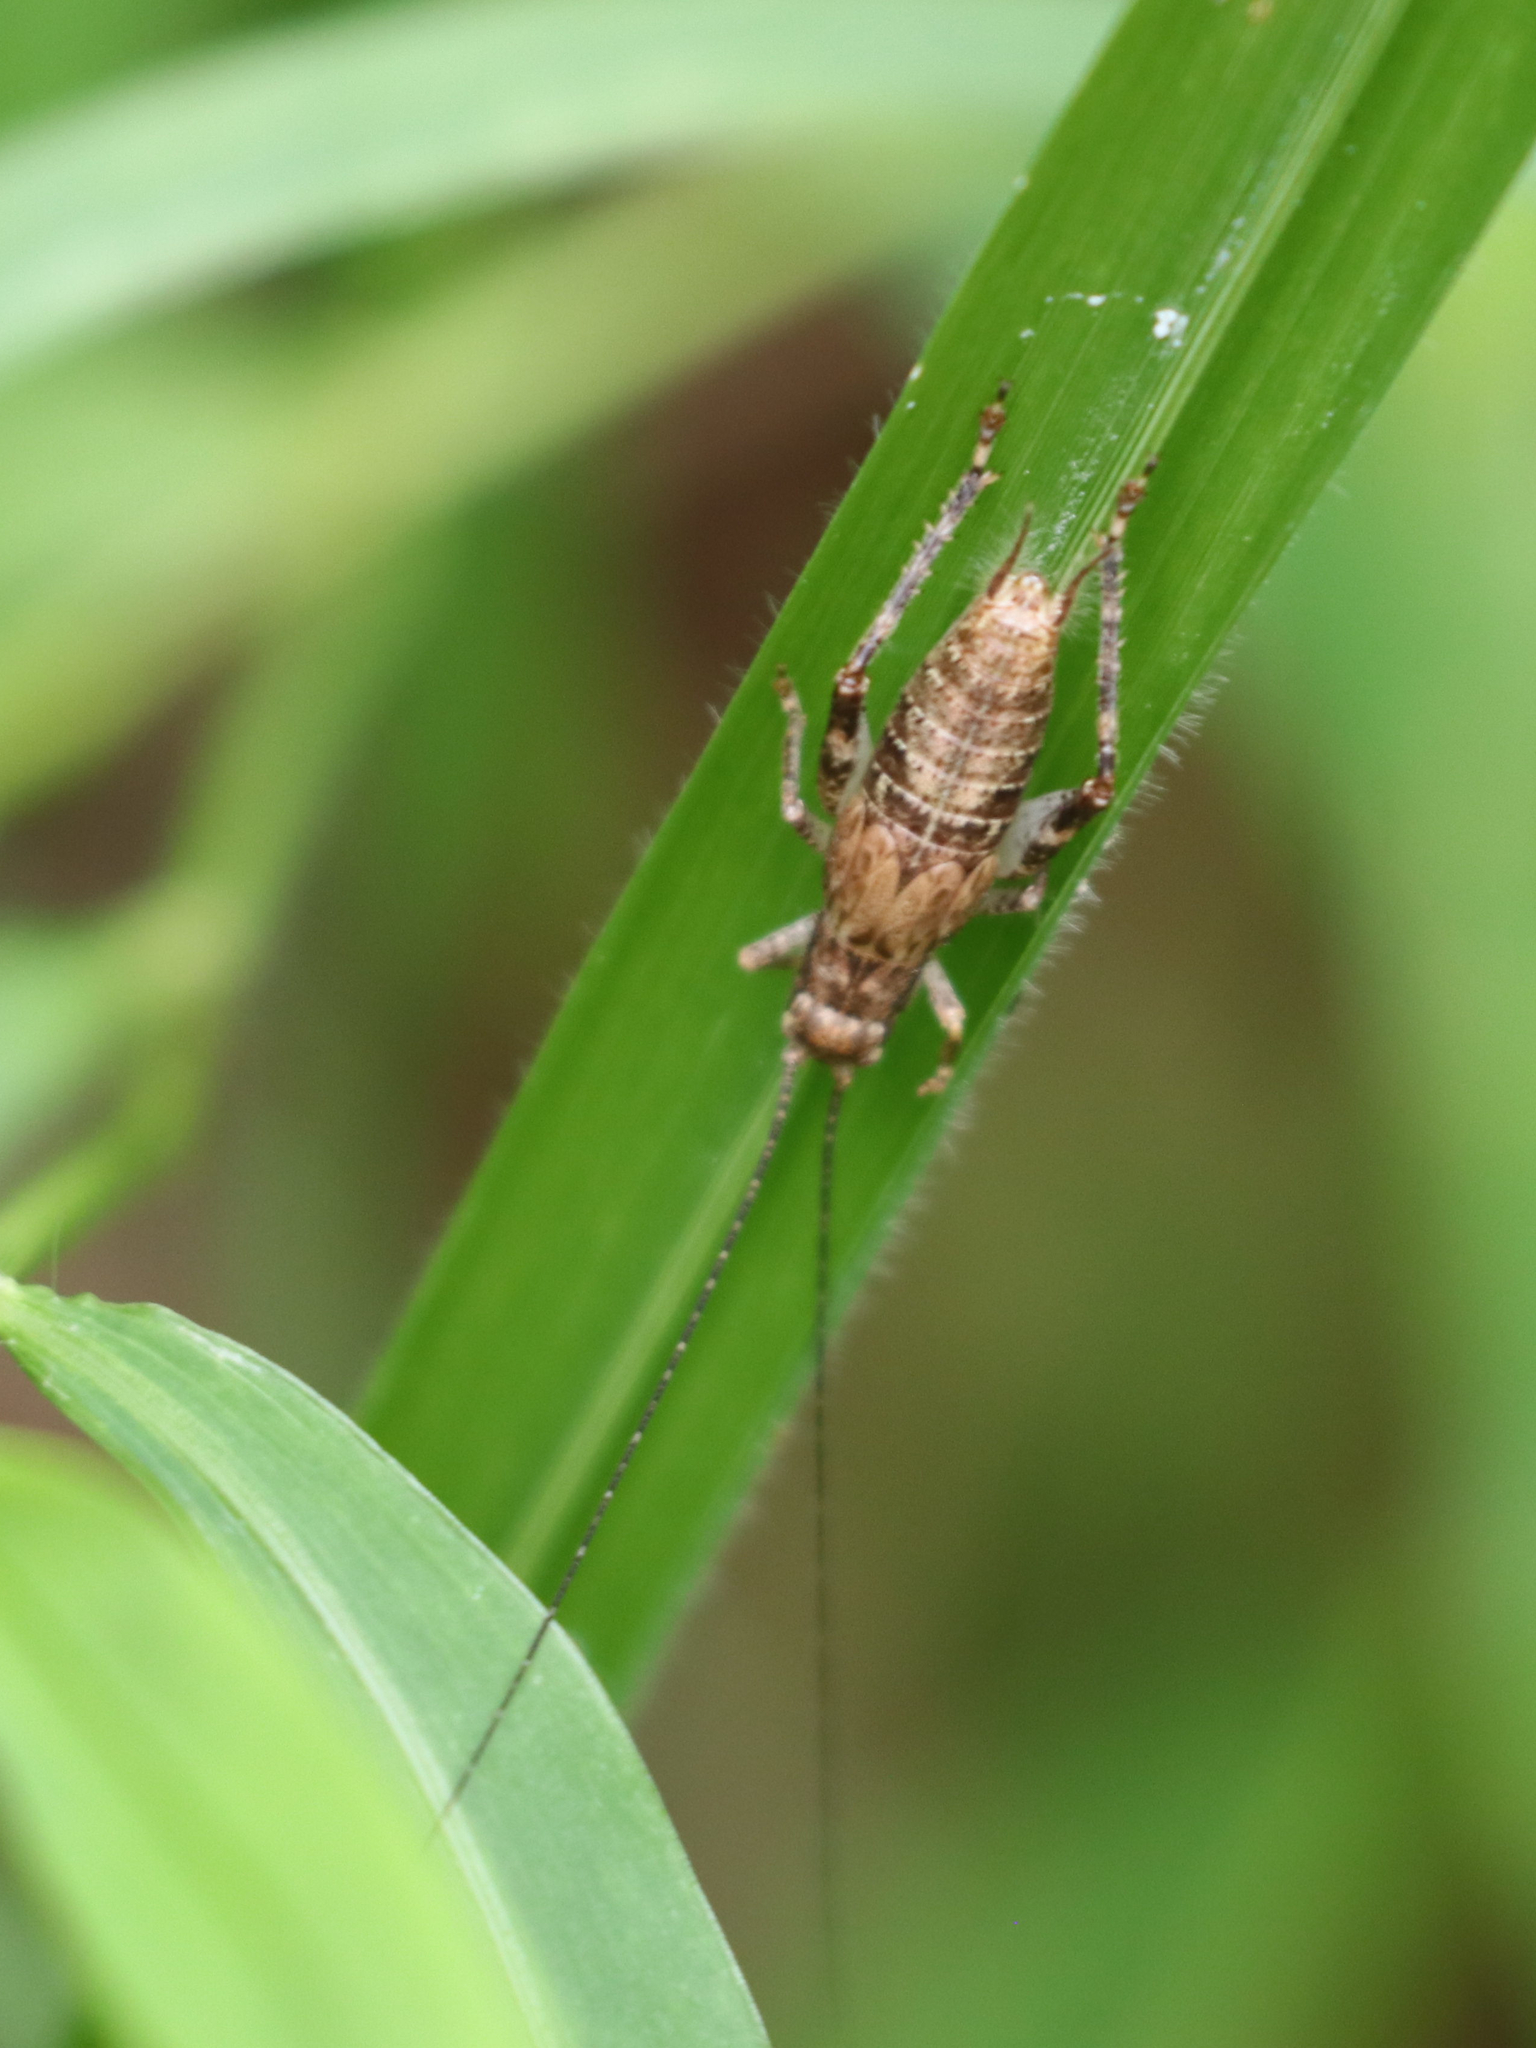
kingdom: Animalia
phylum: Arthropoda
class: Insecta
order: Orthoptera
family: Gryllidae
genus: Hapithus
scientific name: Hapithus saltator
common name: Jumping bush cricket
